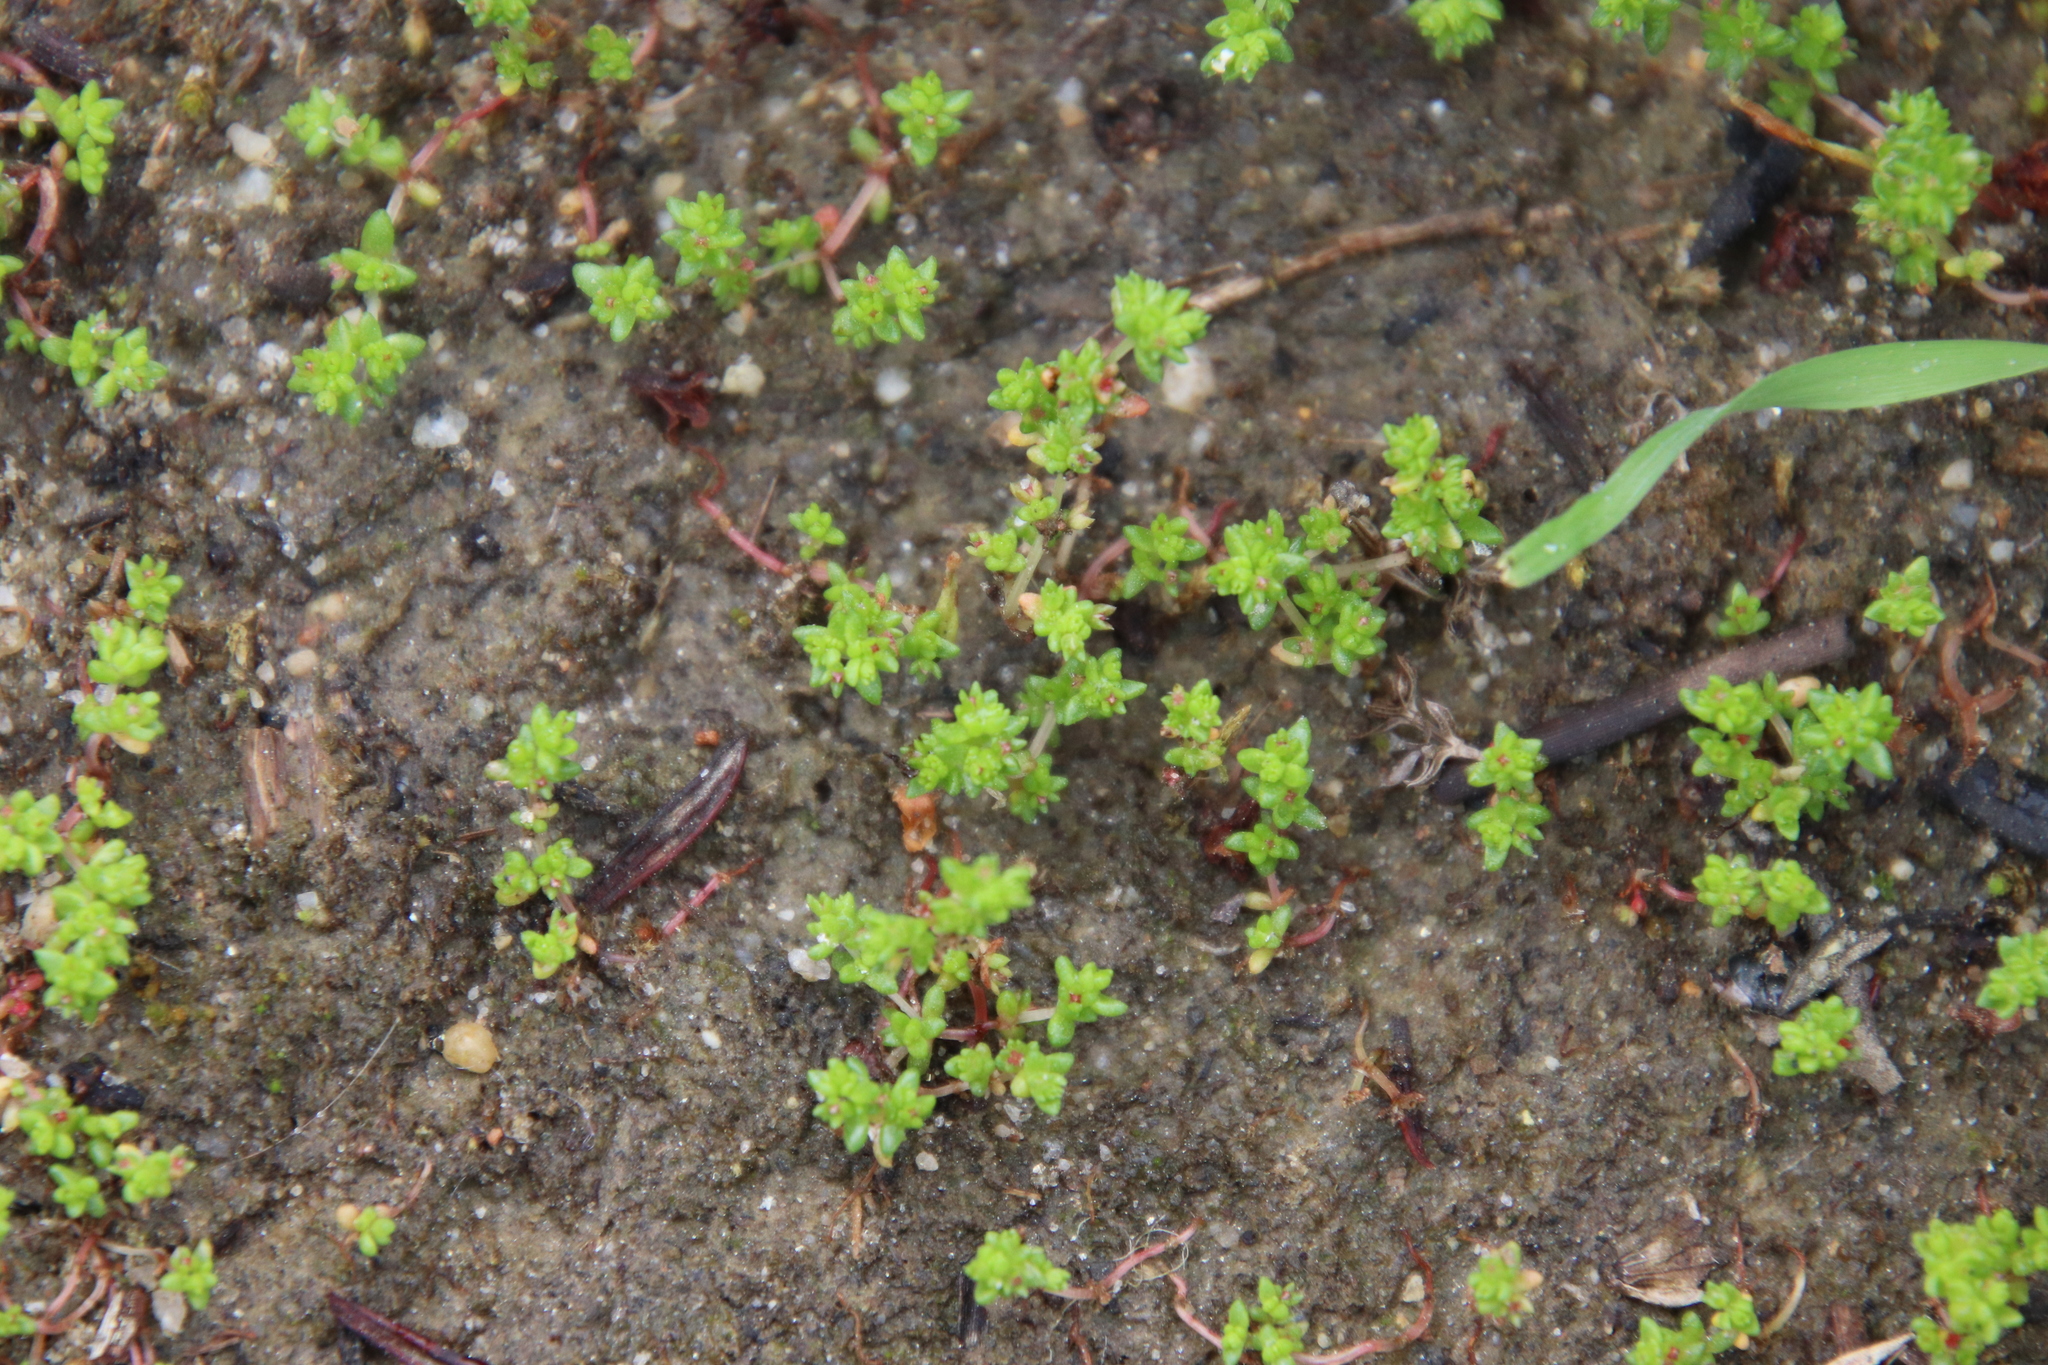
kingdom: Plantae
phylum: Tracheophyta
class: Magnoliopsida
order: Saxifragales
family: Crassulaceae
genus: Crassula
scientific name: Crassula connata
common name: Erect pygmyweed
